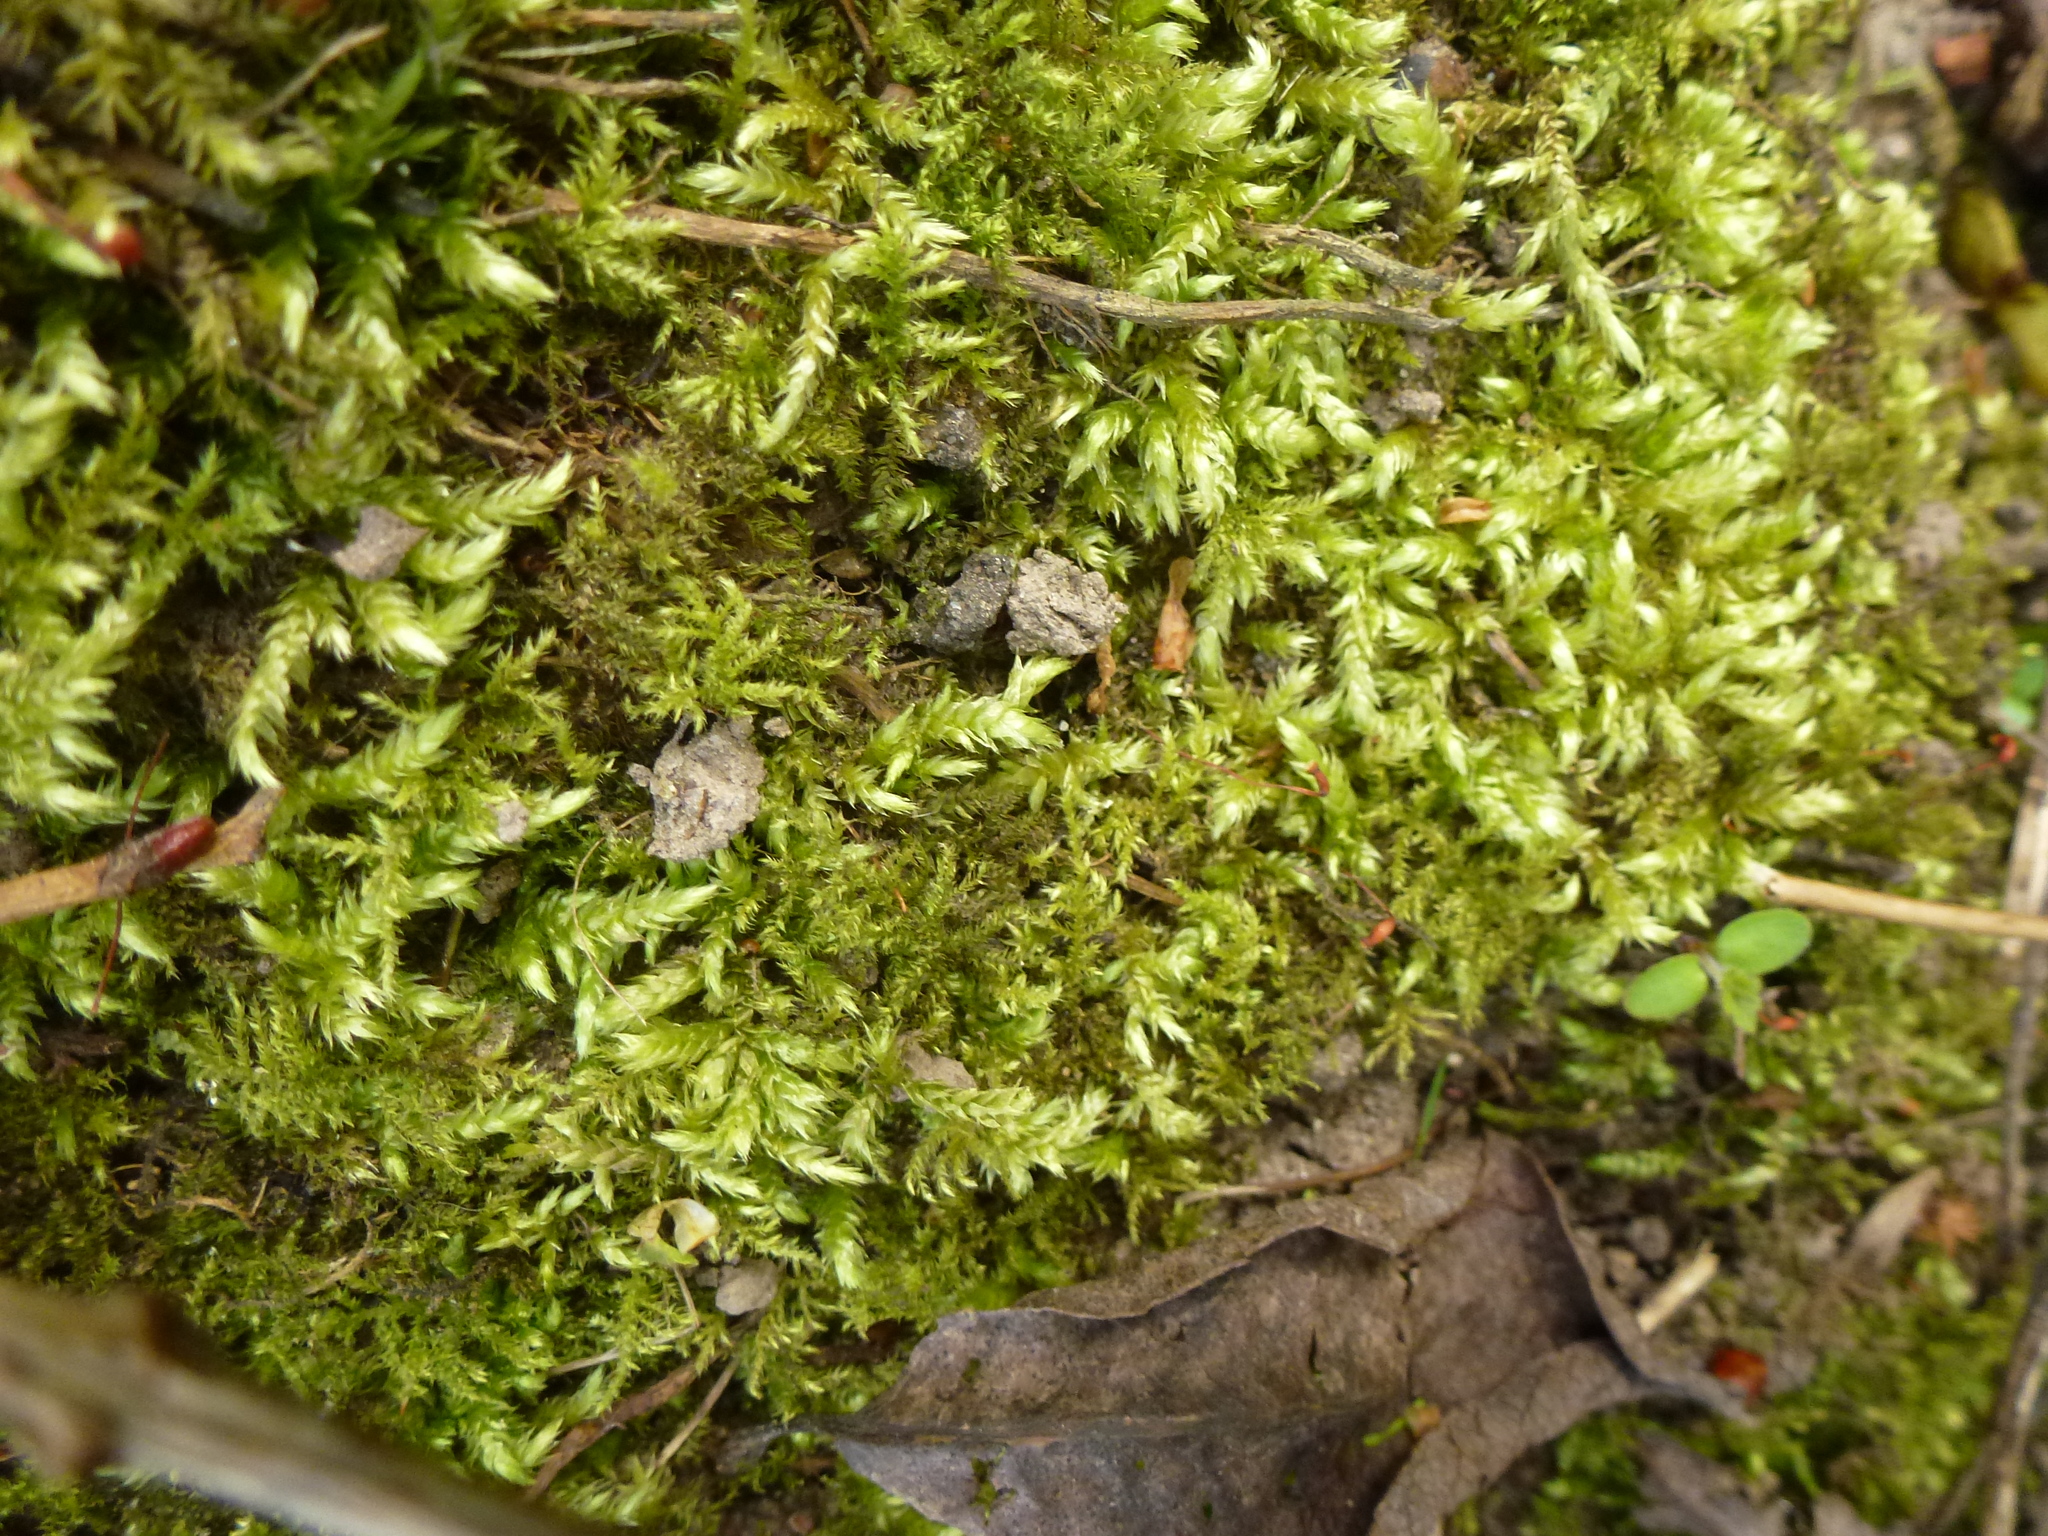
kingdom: Plantae
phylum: Bryophyta
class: Bryopsida
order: Hypnales
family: Brachytheciaceae
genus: Brachythecium
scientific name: Brachythecium rutabulum
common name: Rough-stalked feather-moss
